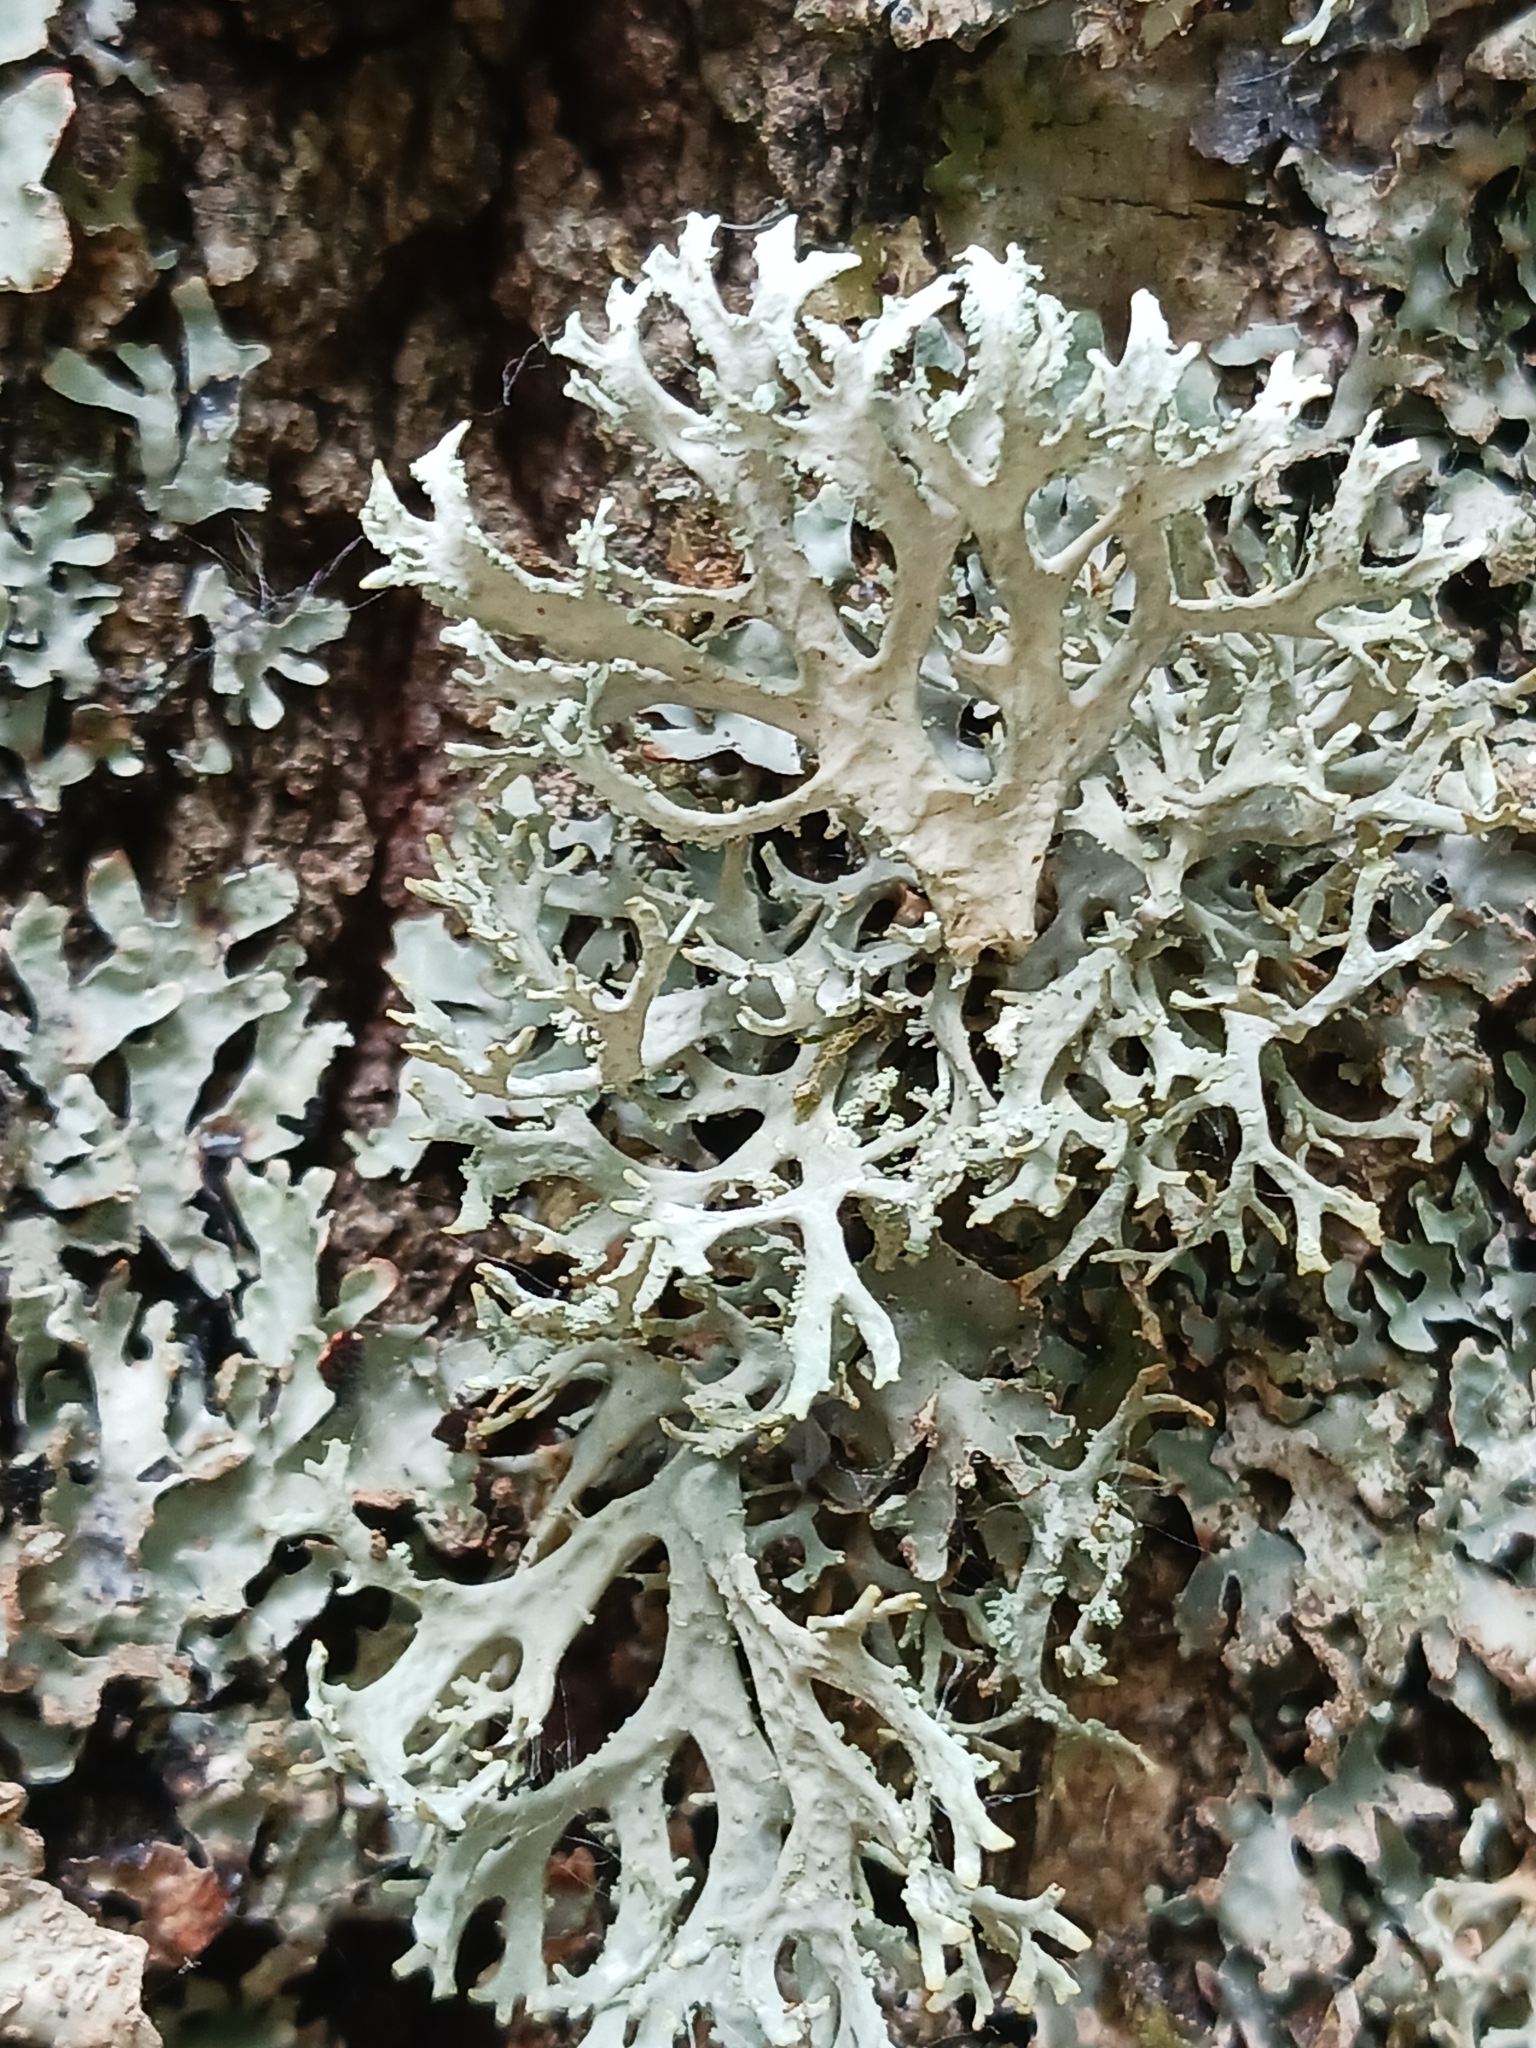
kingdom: Fungi
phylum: Ascomycota
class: Lecanoromycetes
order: Lecanorales
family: Parmeliaceae
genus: Evernia
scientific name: Evernia prunastri
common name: Oak moss
